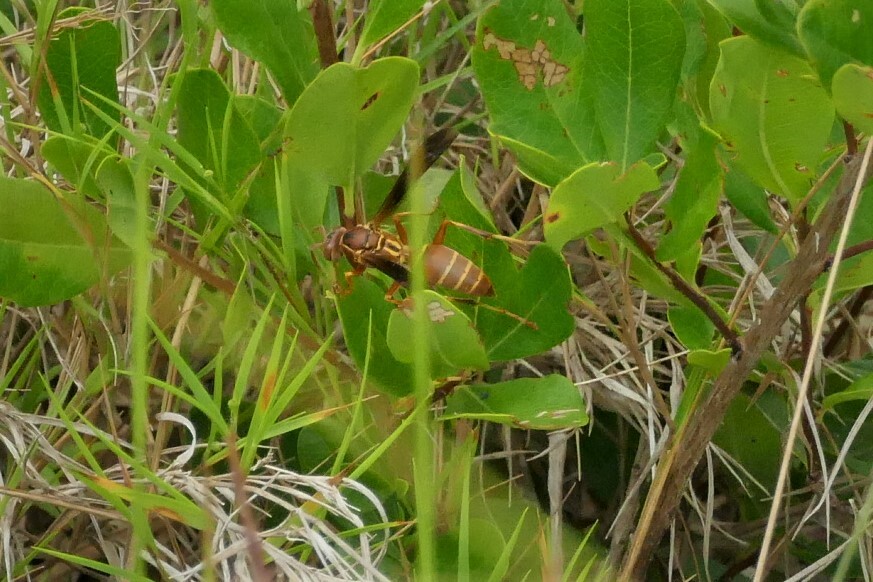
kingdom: Animalia
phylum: Arthropoda
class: Insecta
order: Hymenoptera
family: Eumenidae
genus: Polistes
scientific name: Polistes bellicosus
